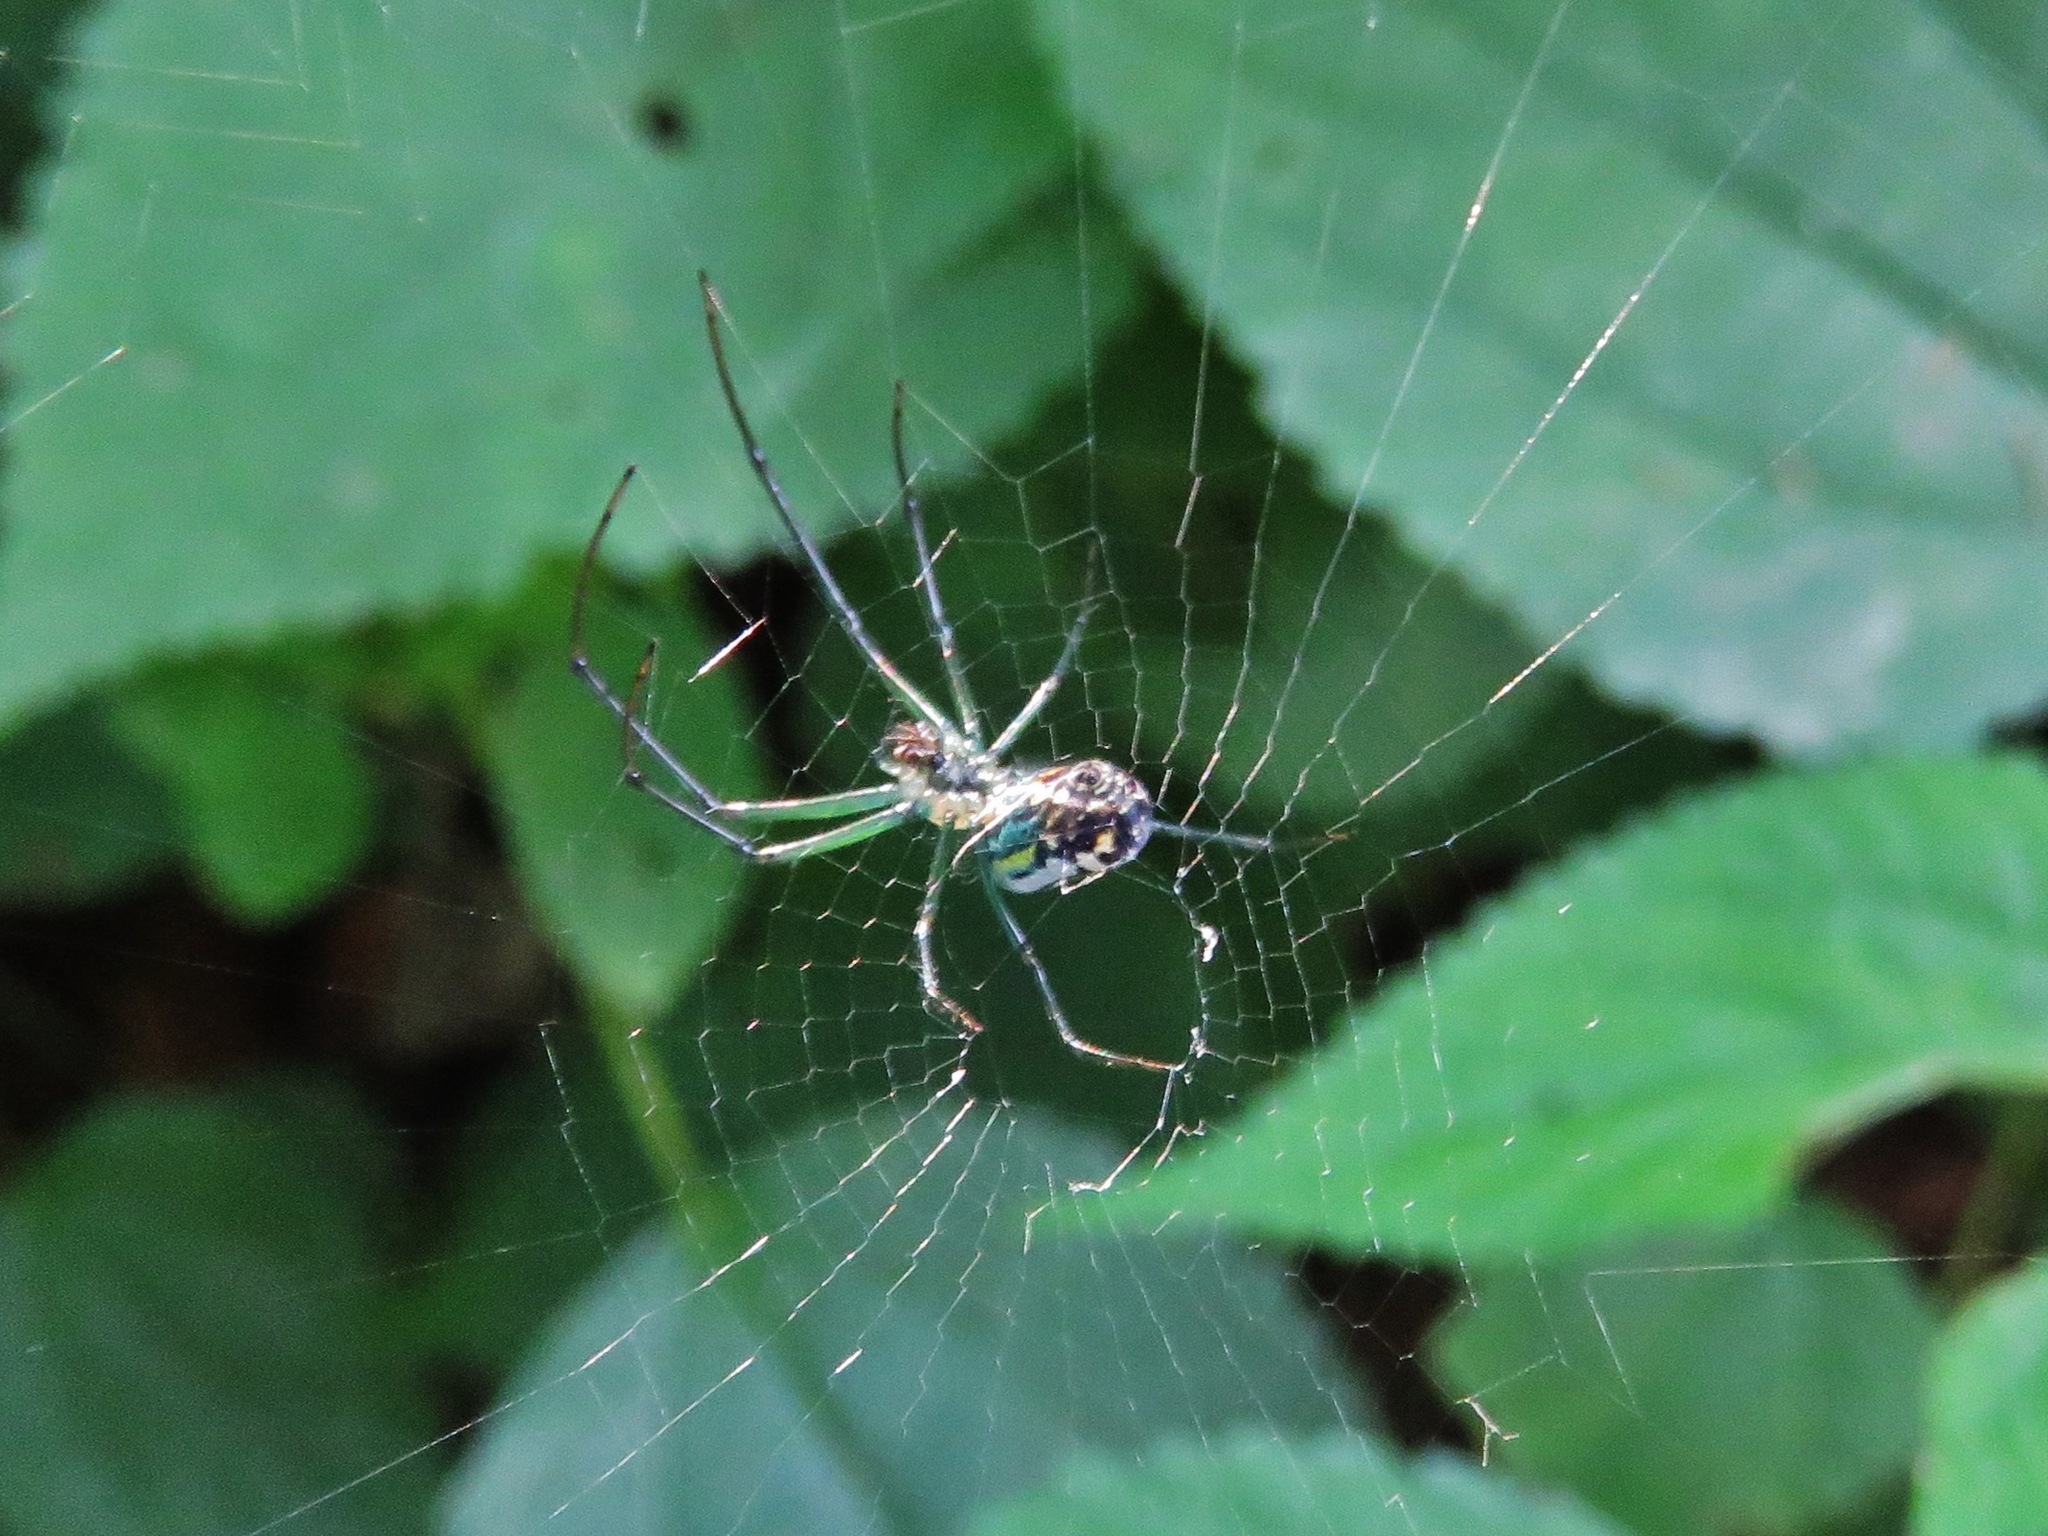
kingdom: Animalia
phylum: Arthropoda
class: Arachnida
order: Araneae
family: Tetragnathidae
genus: Leucauge
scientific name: Leucauge venusta
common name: Longjawed orb weavers
